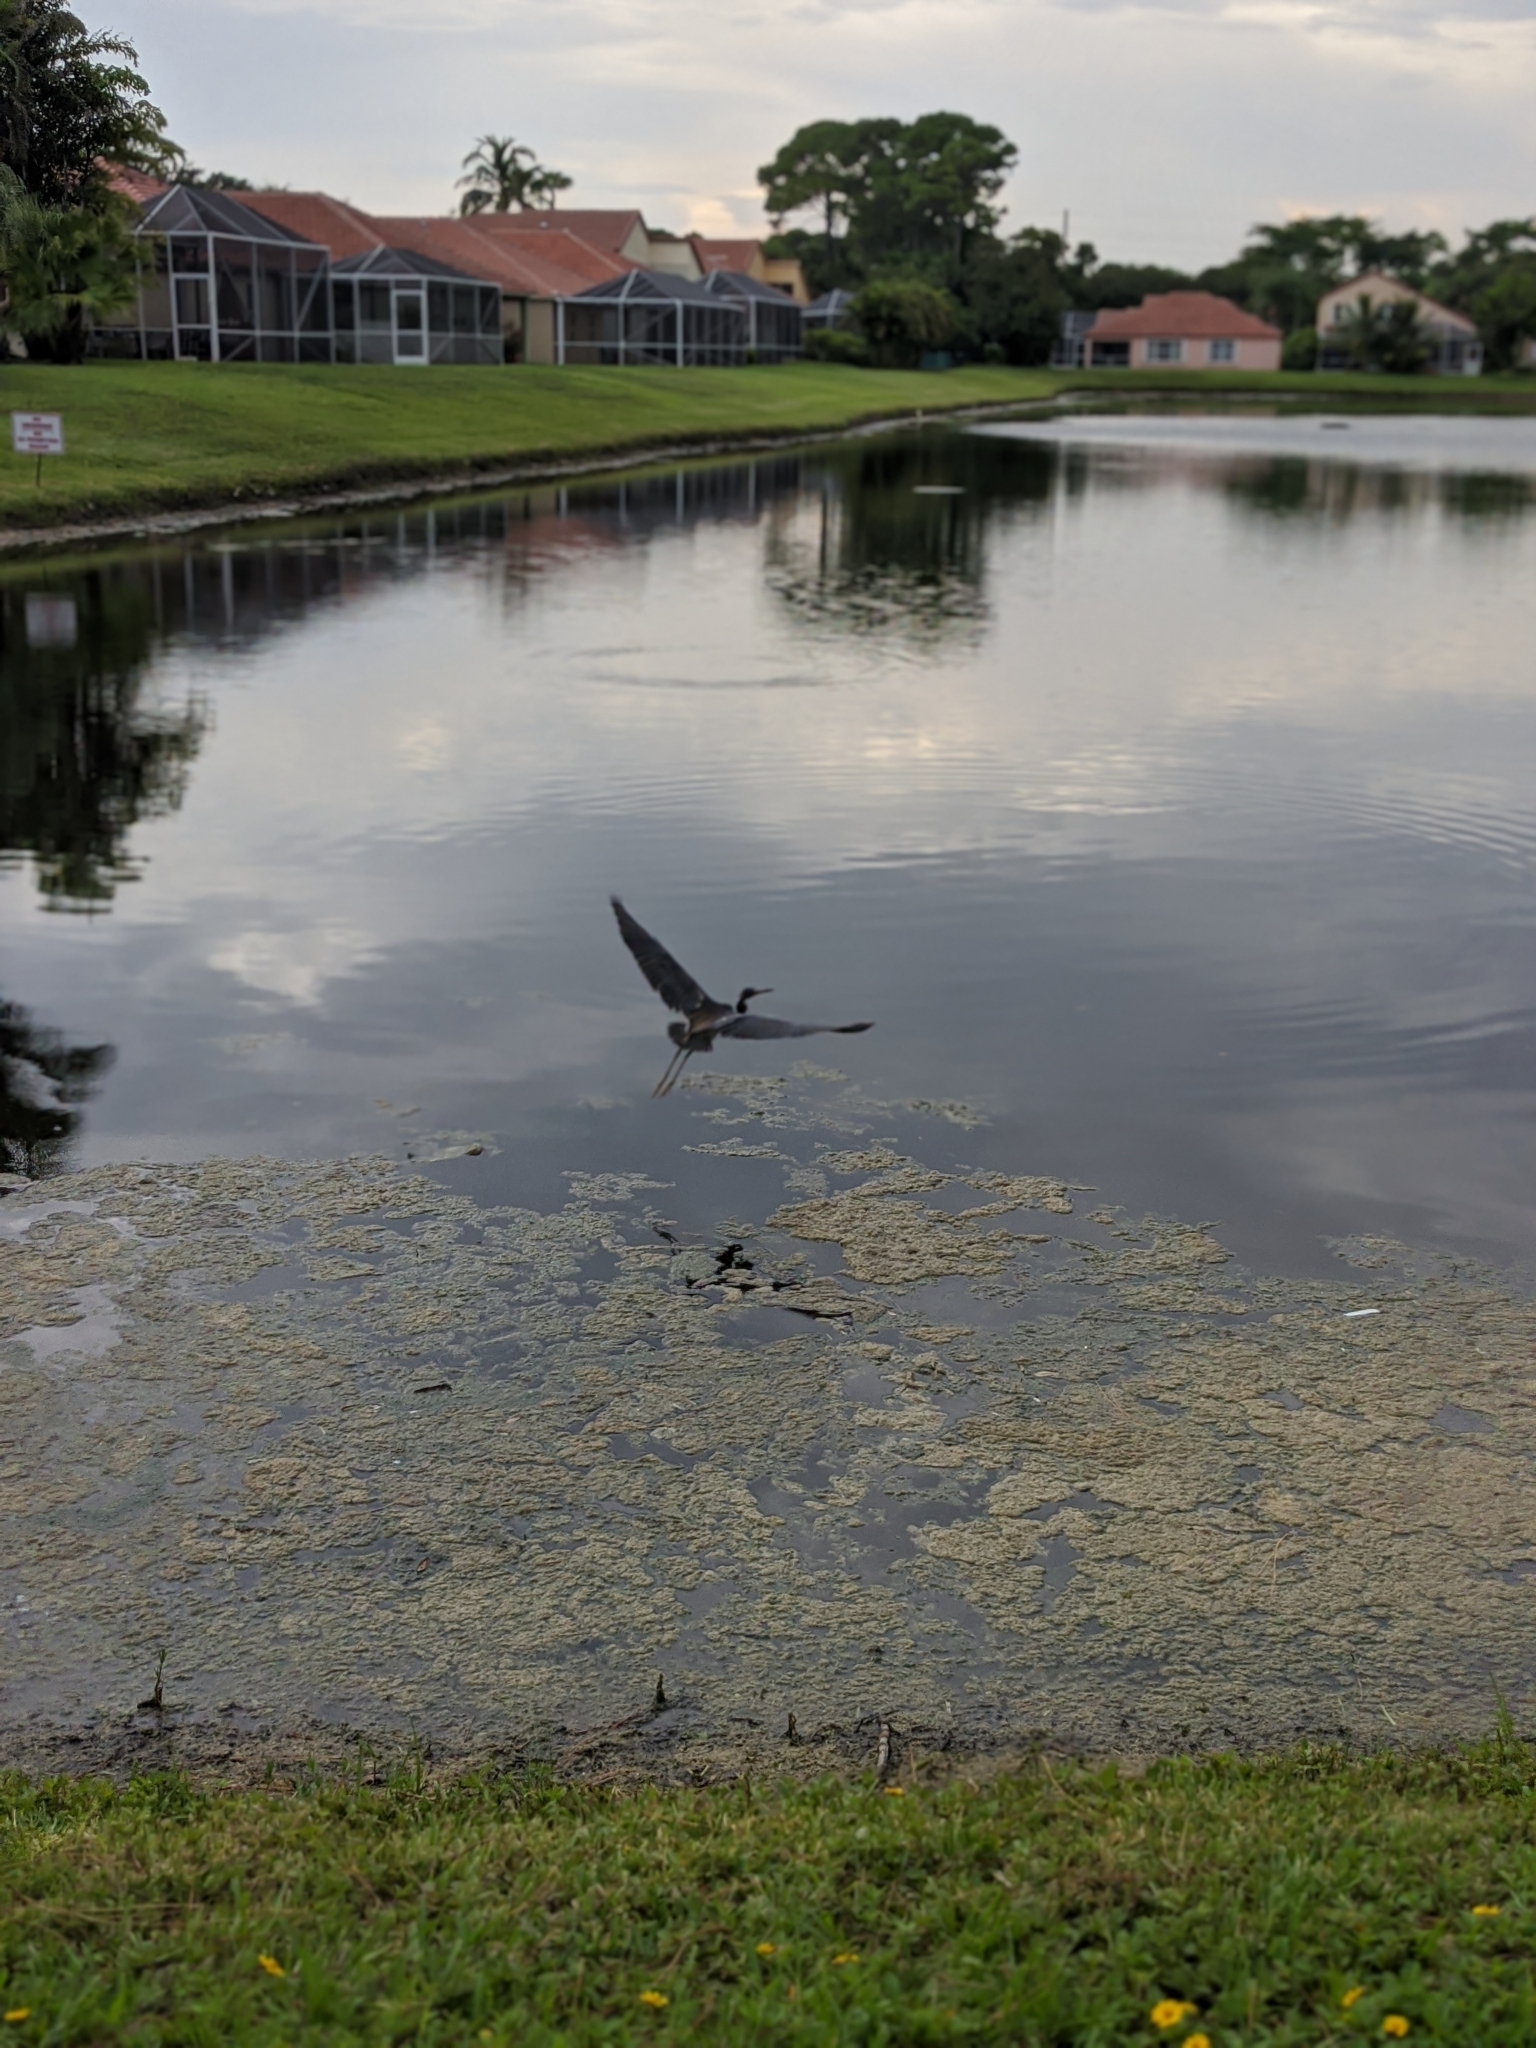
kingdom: Animalia
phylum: Chordata
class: Aves
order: Pelecaniformes
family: Ardeidae
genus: Egretta
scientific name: Egretta tricolor
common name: Tricolored heron
